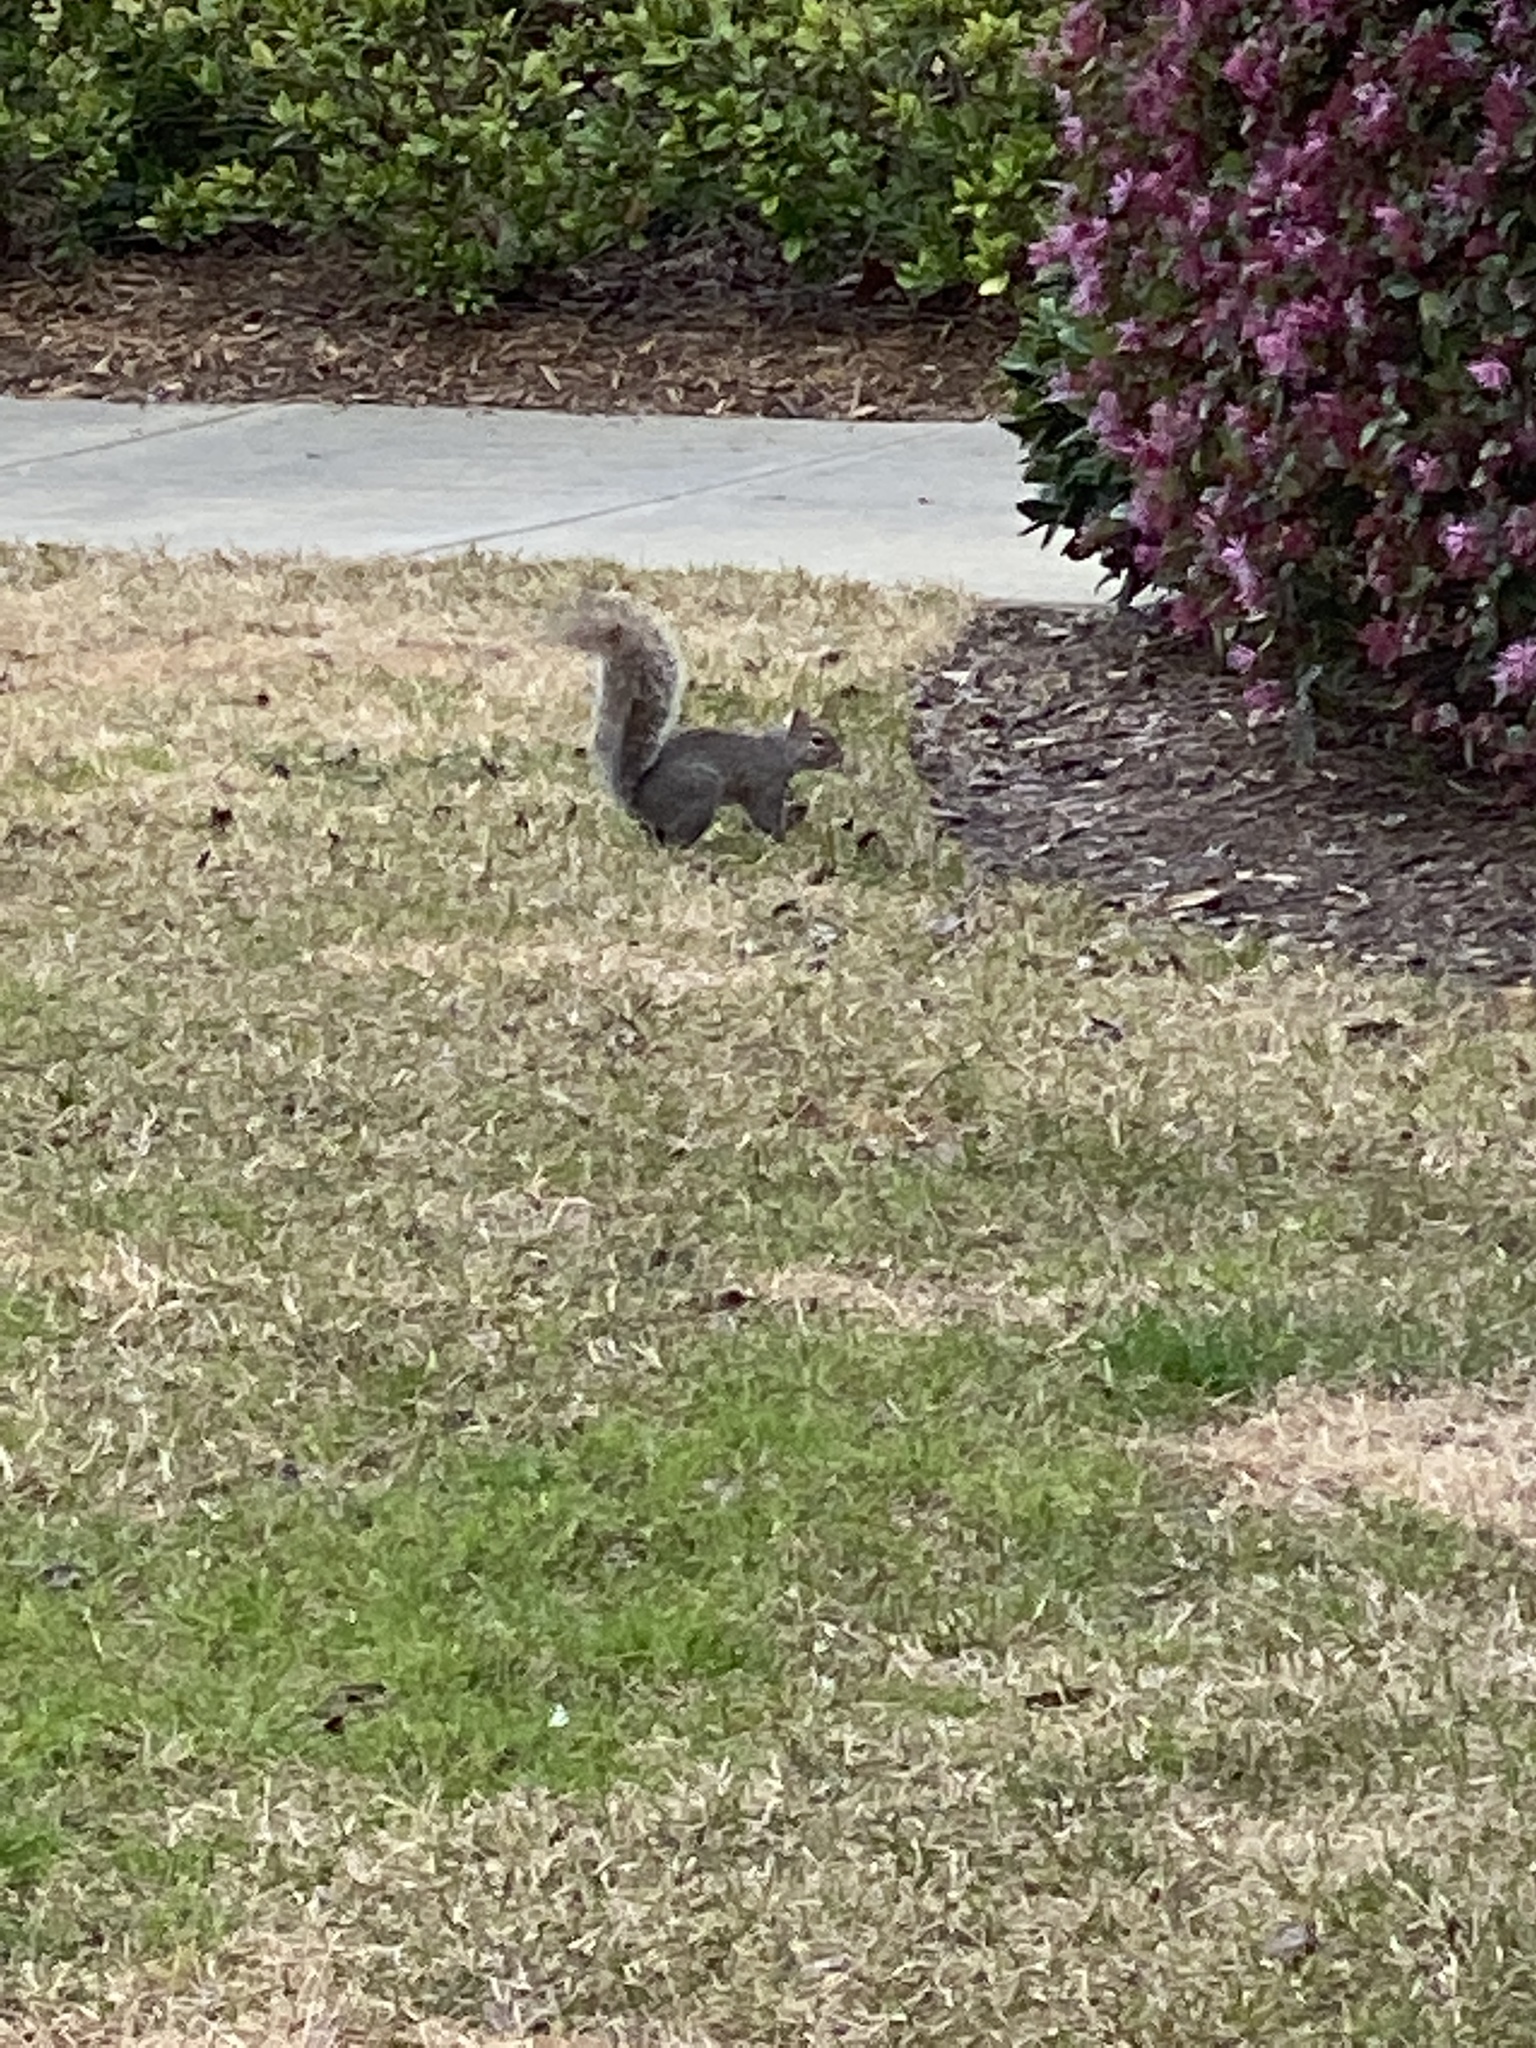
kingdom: Animalia
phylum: Chordata
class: Mammalia
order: Rodentia
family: Sciuridae
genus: Sciurus
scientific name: Sciurus carolinensis
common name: Eastern gray squirrel
